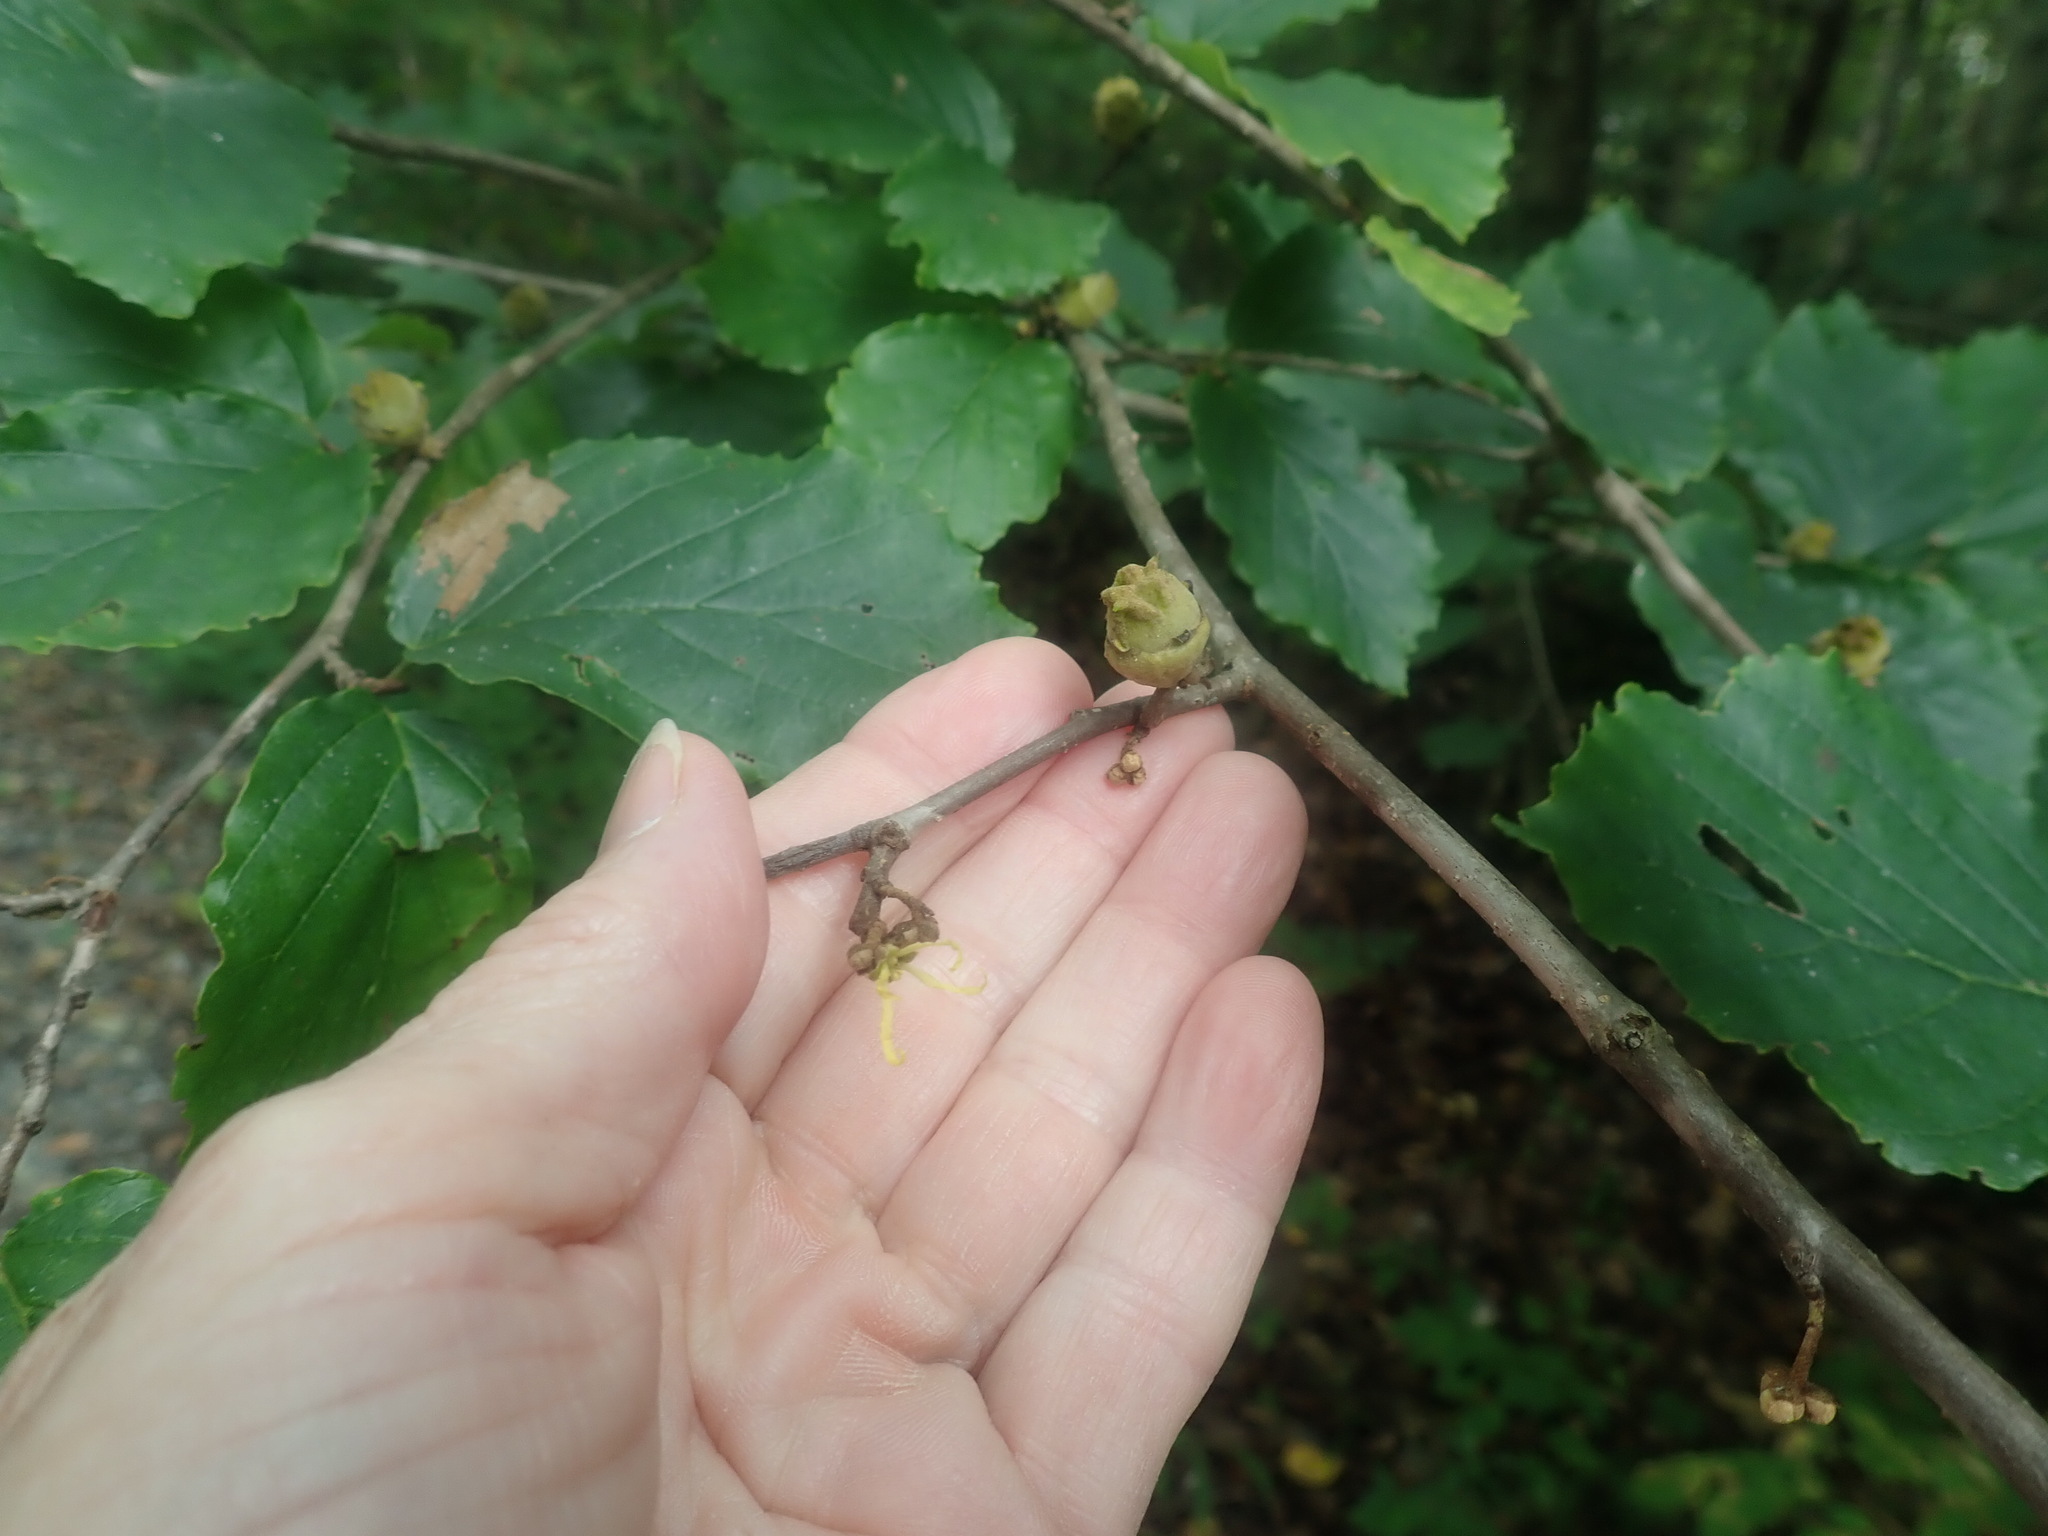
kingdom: Plantae
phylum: Tracheophyta
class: Magnoliopsida
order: Saxifragales
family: Hamamelidaceae
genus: Hamamelis
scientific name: Hamamelis virginiana
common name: Witch-hazel
